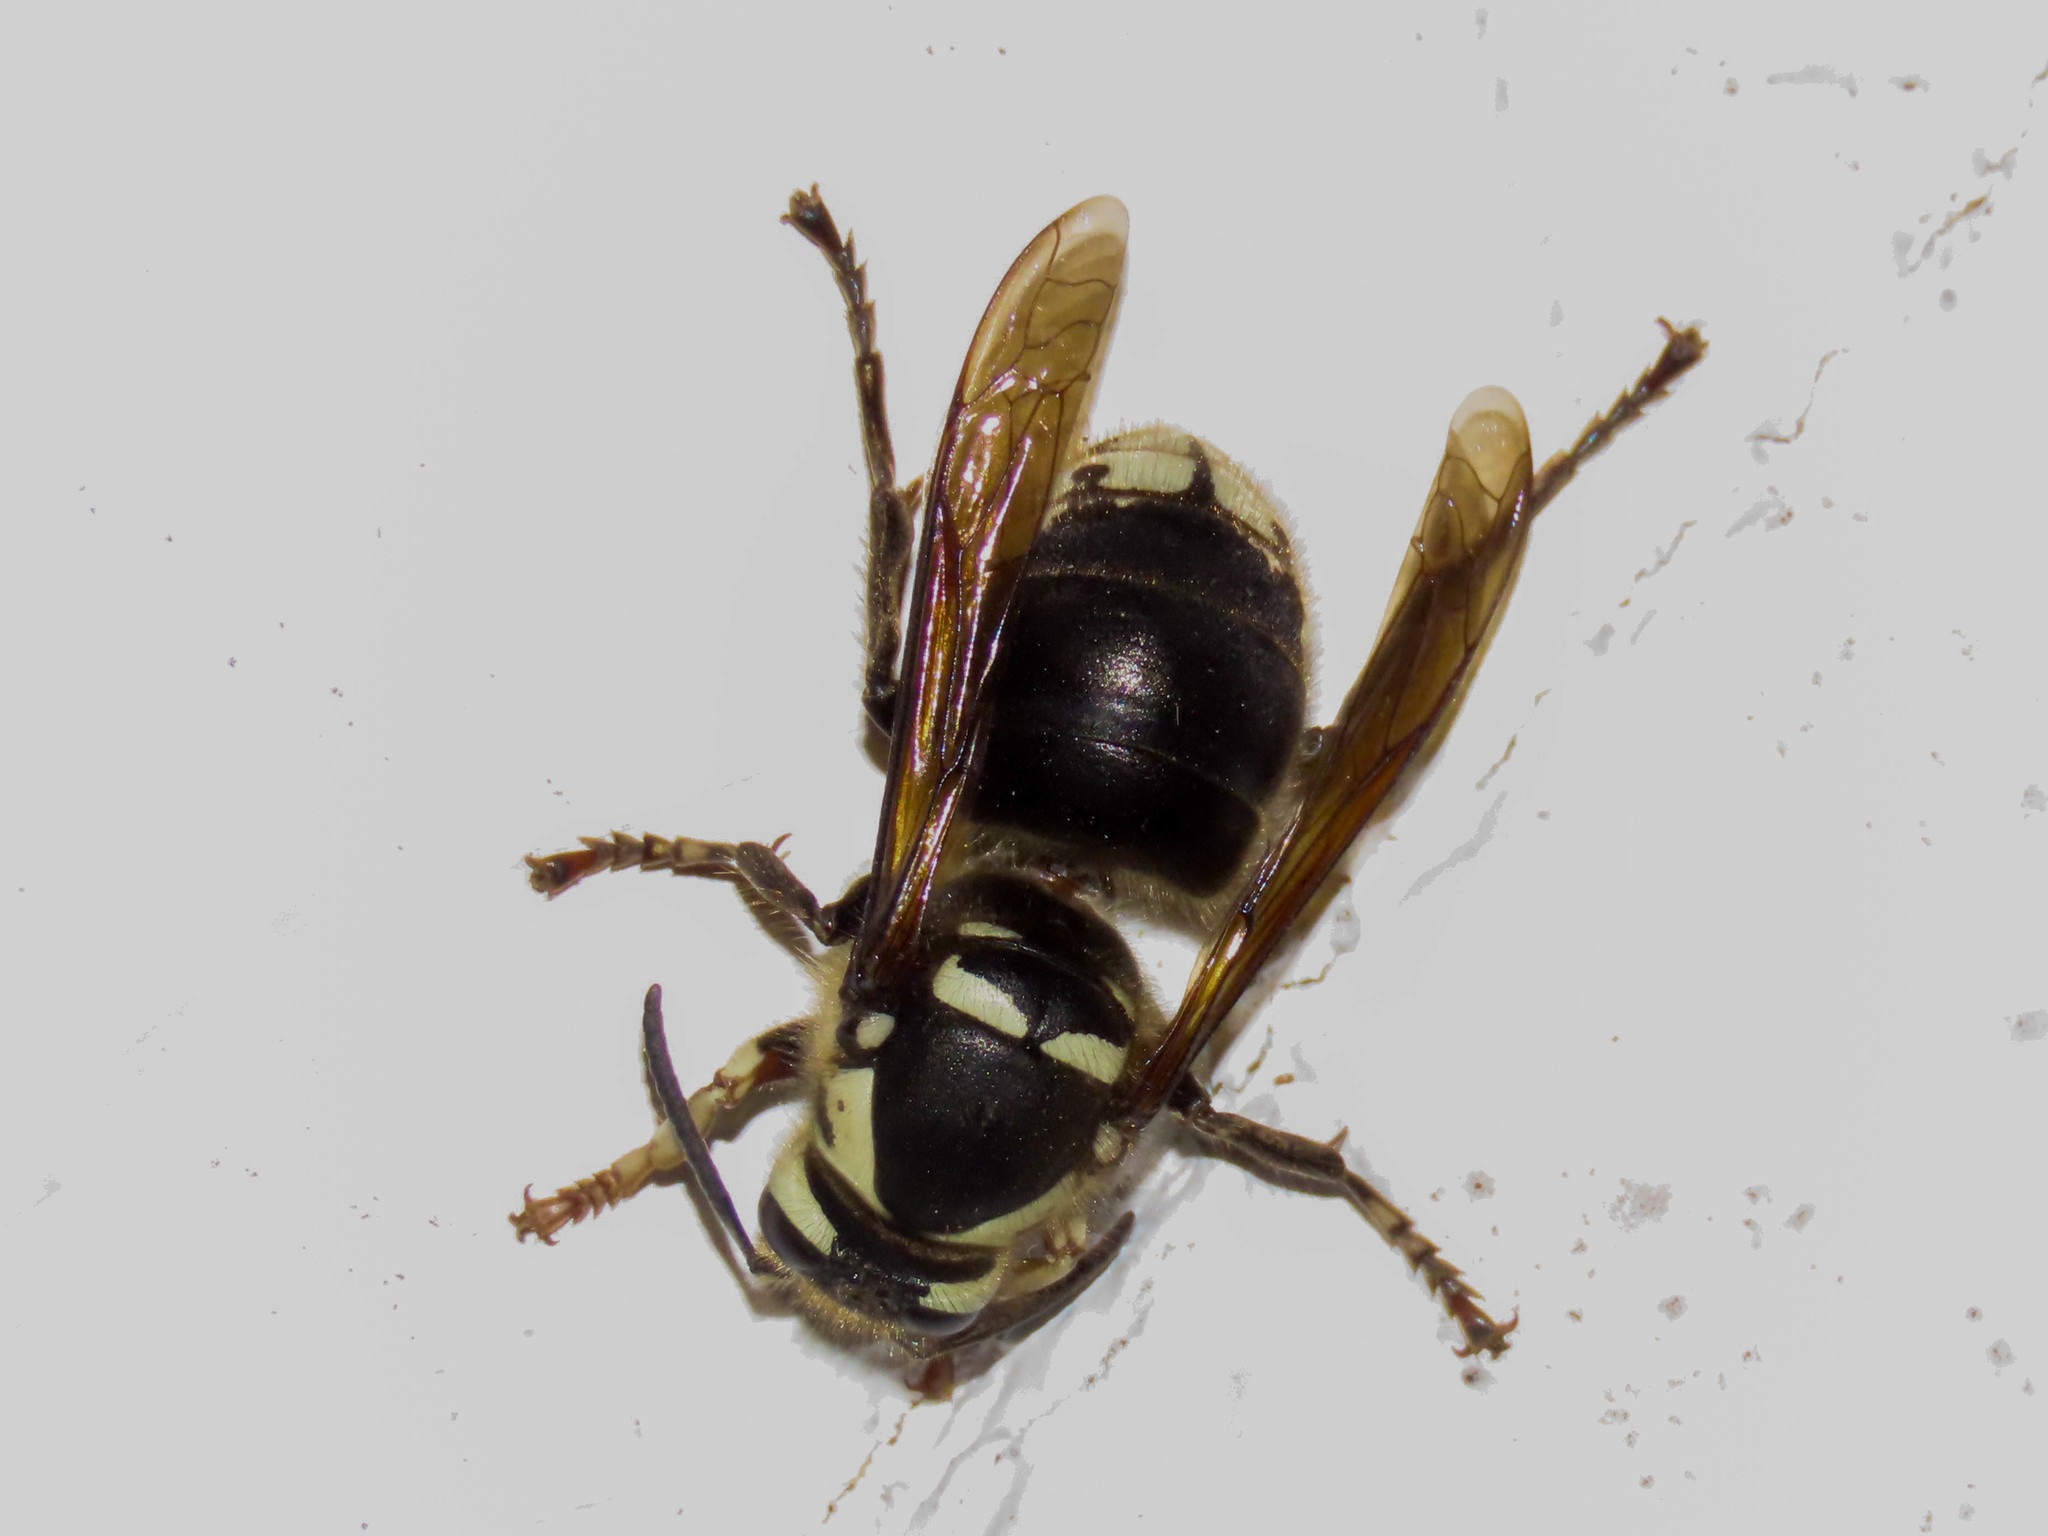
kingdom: Animalia
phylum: Arthropoda
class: Insecta
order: Hymenoptera
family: Vespidae
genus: Dolichovespula
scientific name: Dolichovespula maculata
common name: Bald-faced hornet
